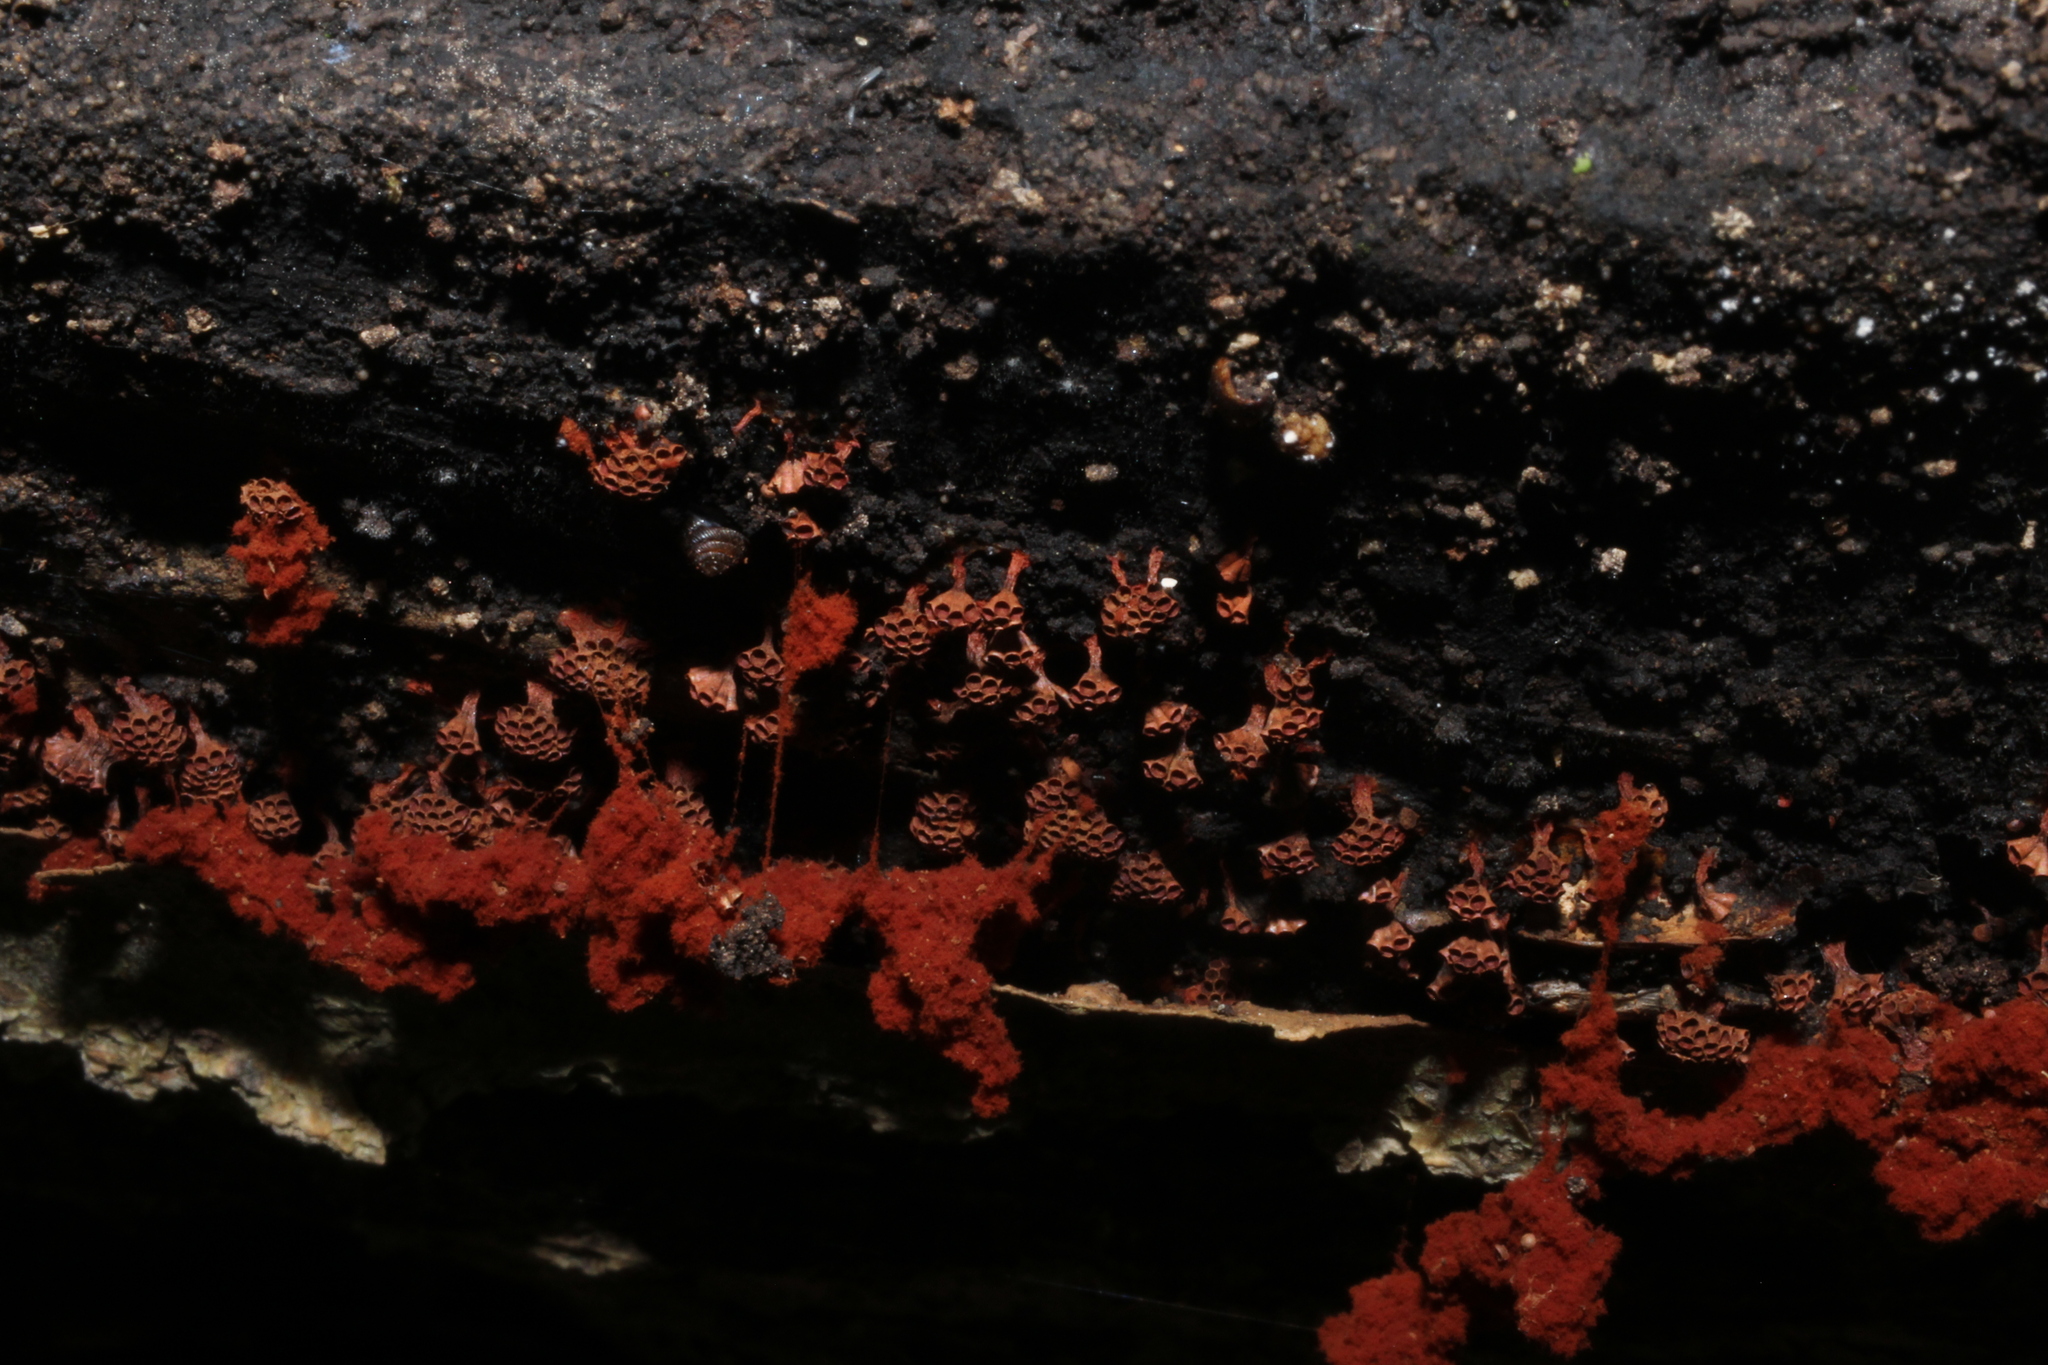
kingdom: Protozoa
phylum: Mycetozoa
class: Myxomycetes
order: Trichiales
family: Trichiaceae
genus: Metatrichia
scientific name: Metatrichia vesparia
